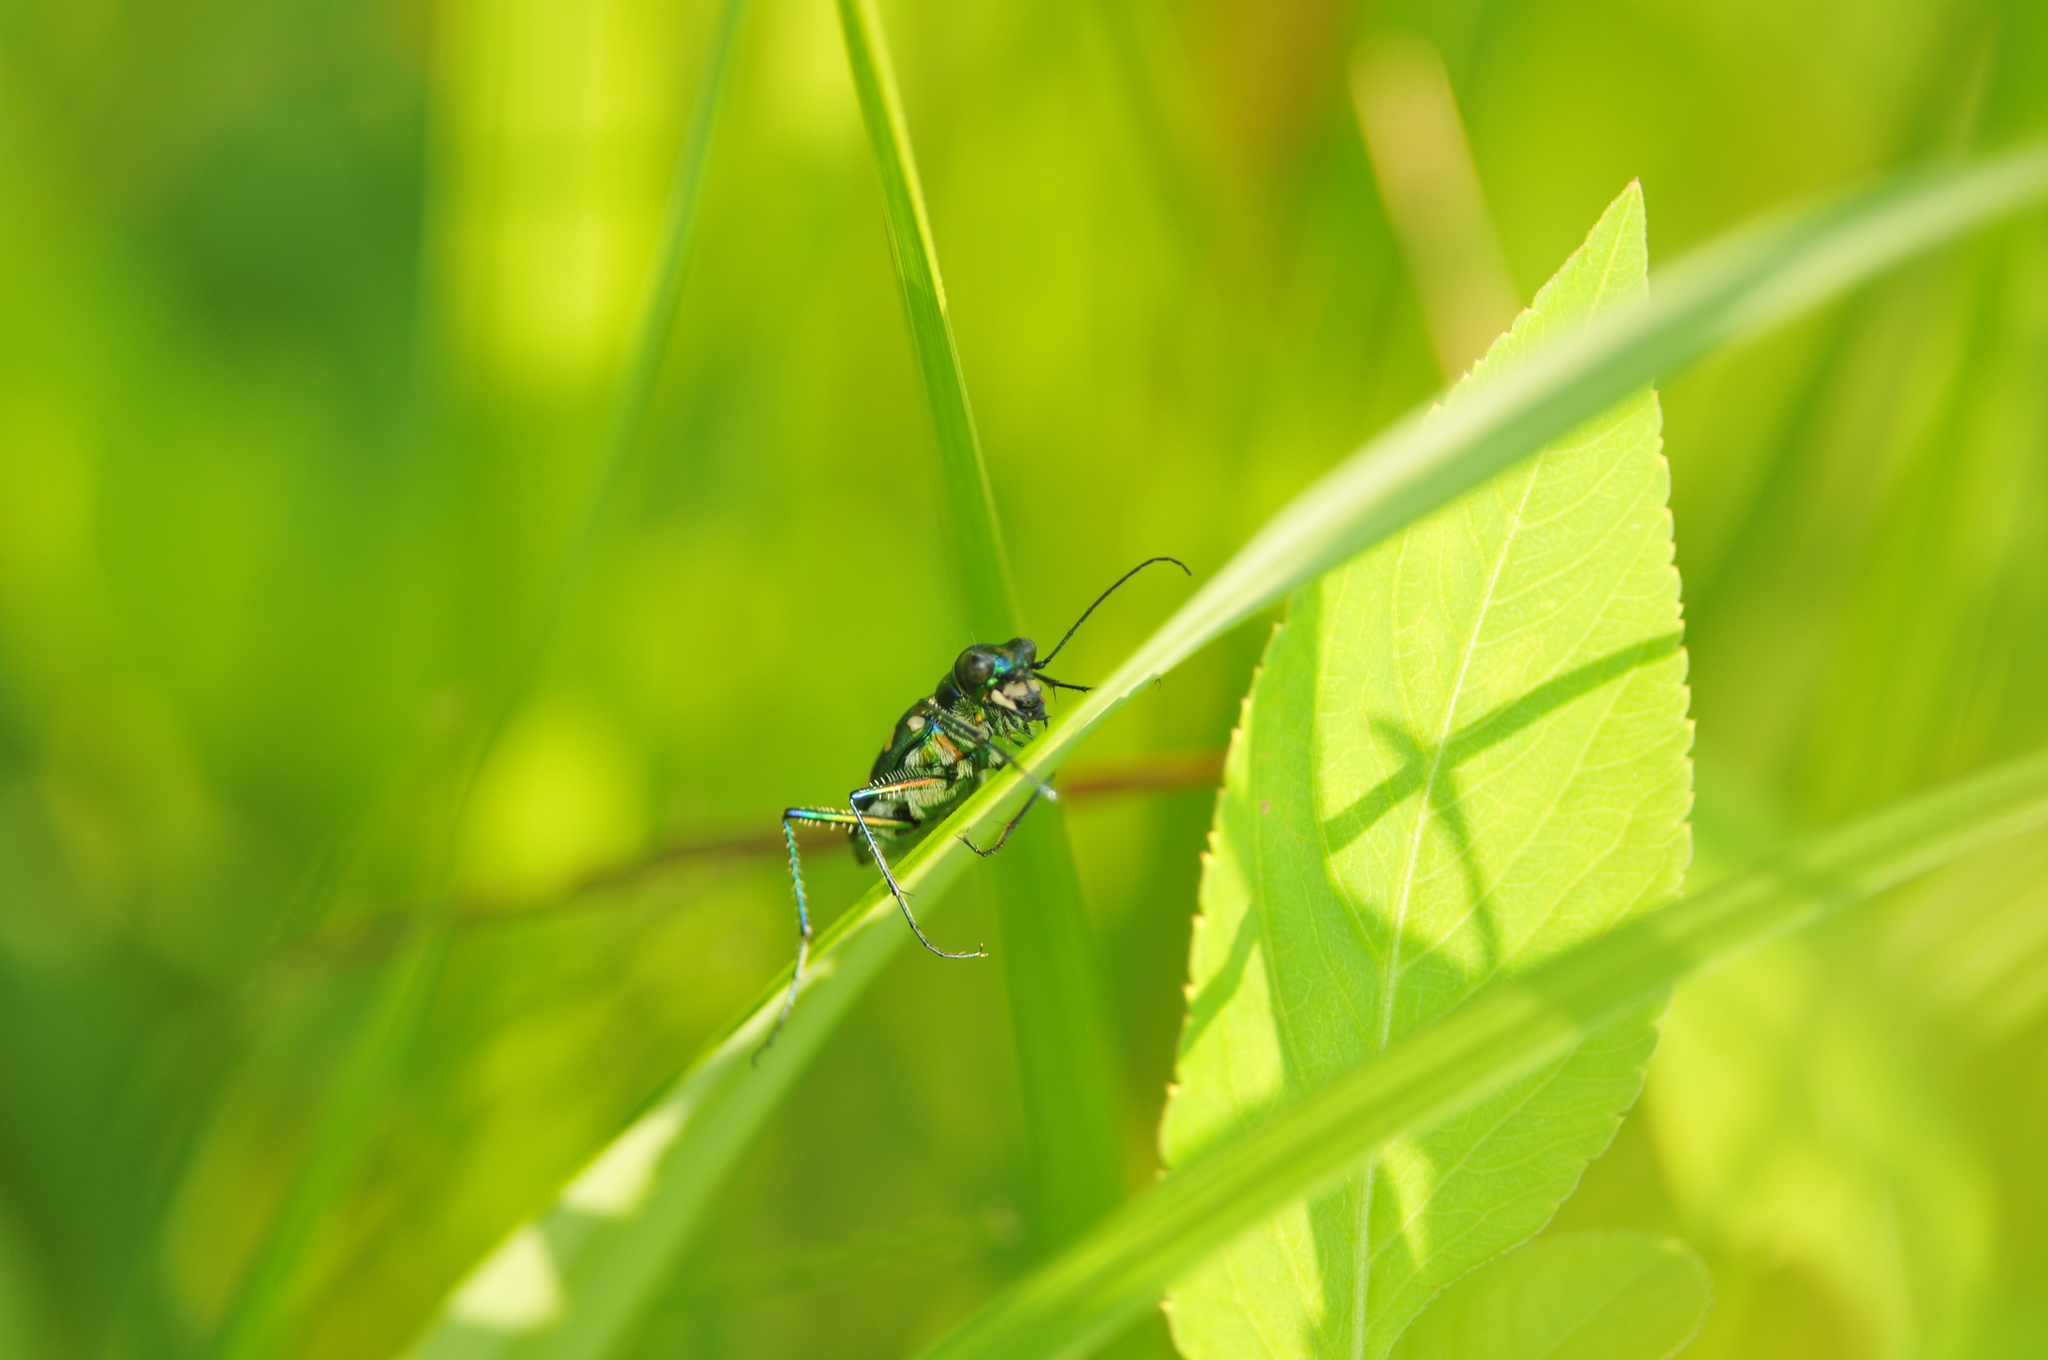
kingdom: Animalia
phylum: Arthropoda
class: Insecta
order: Coleoptera
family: Carabidae
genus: Cicindela
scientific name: Cicindela batesi
